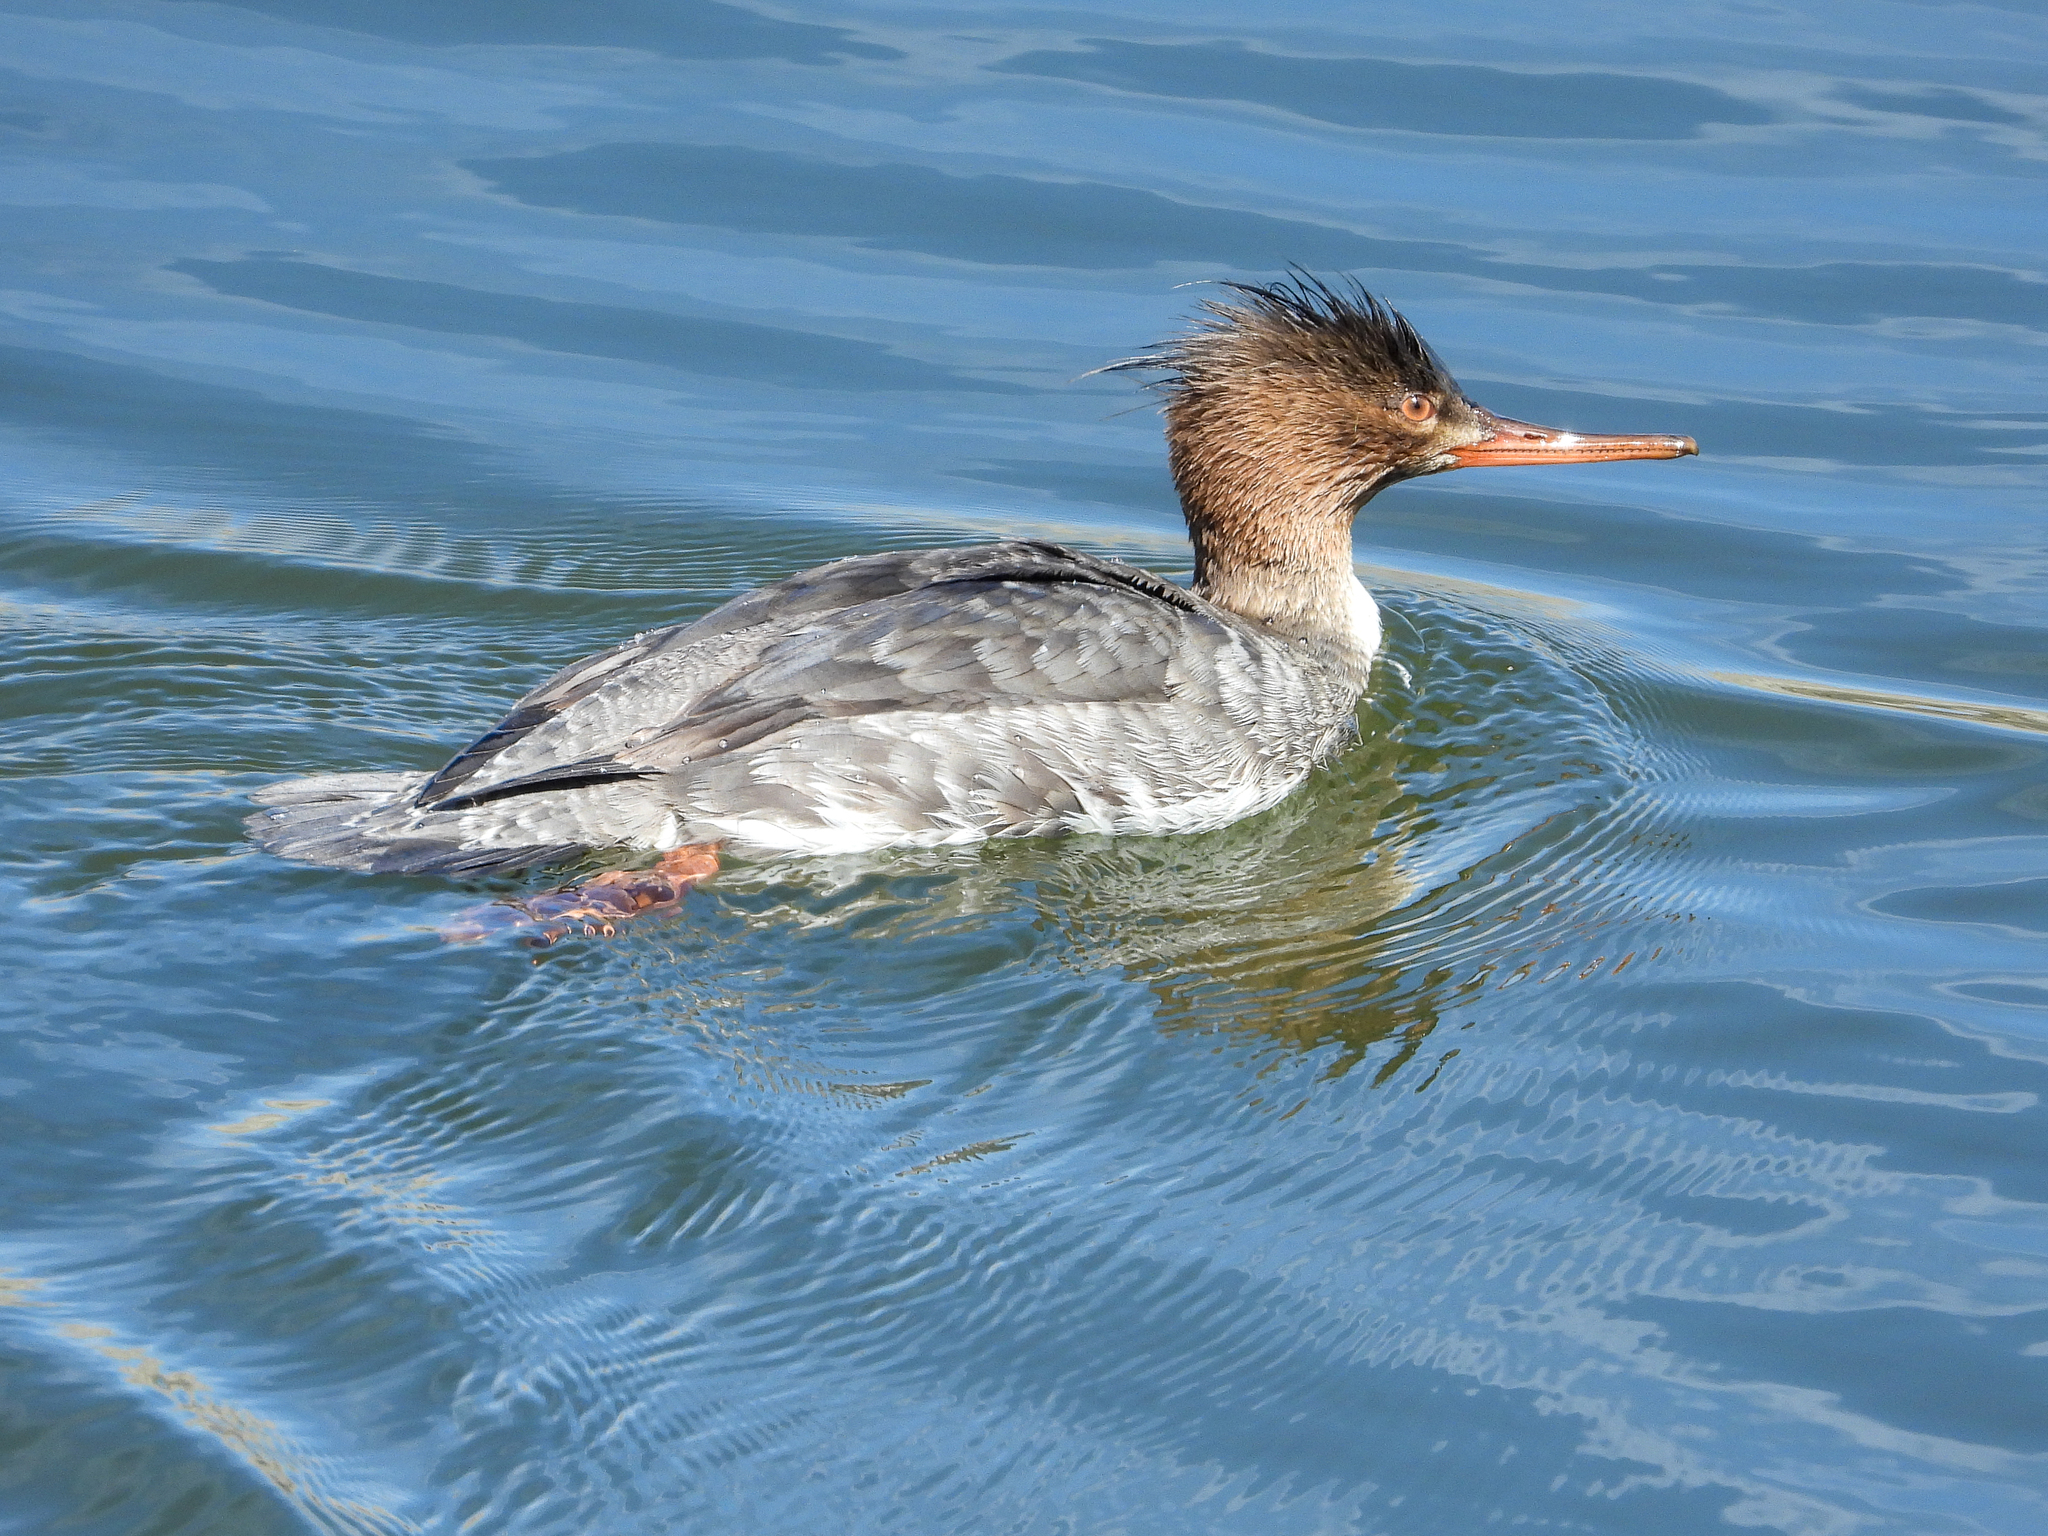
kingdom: Animalia
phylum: Chordata
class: Aves
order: Anseriformes
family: Anatidae
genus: Mergus
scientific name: Mergus serrator
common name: Red-breasted merganser
